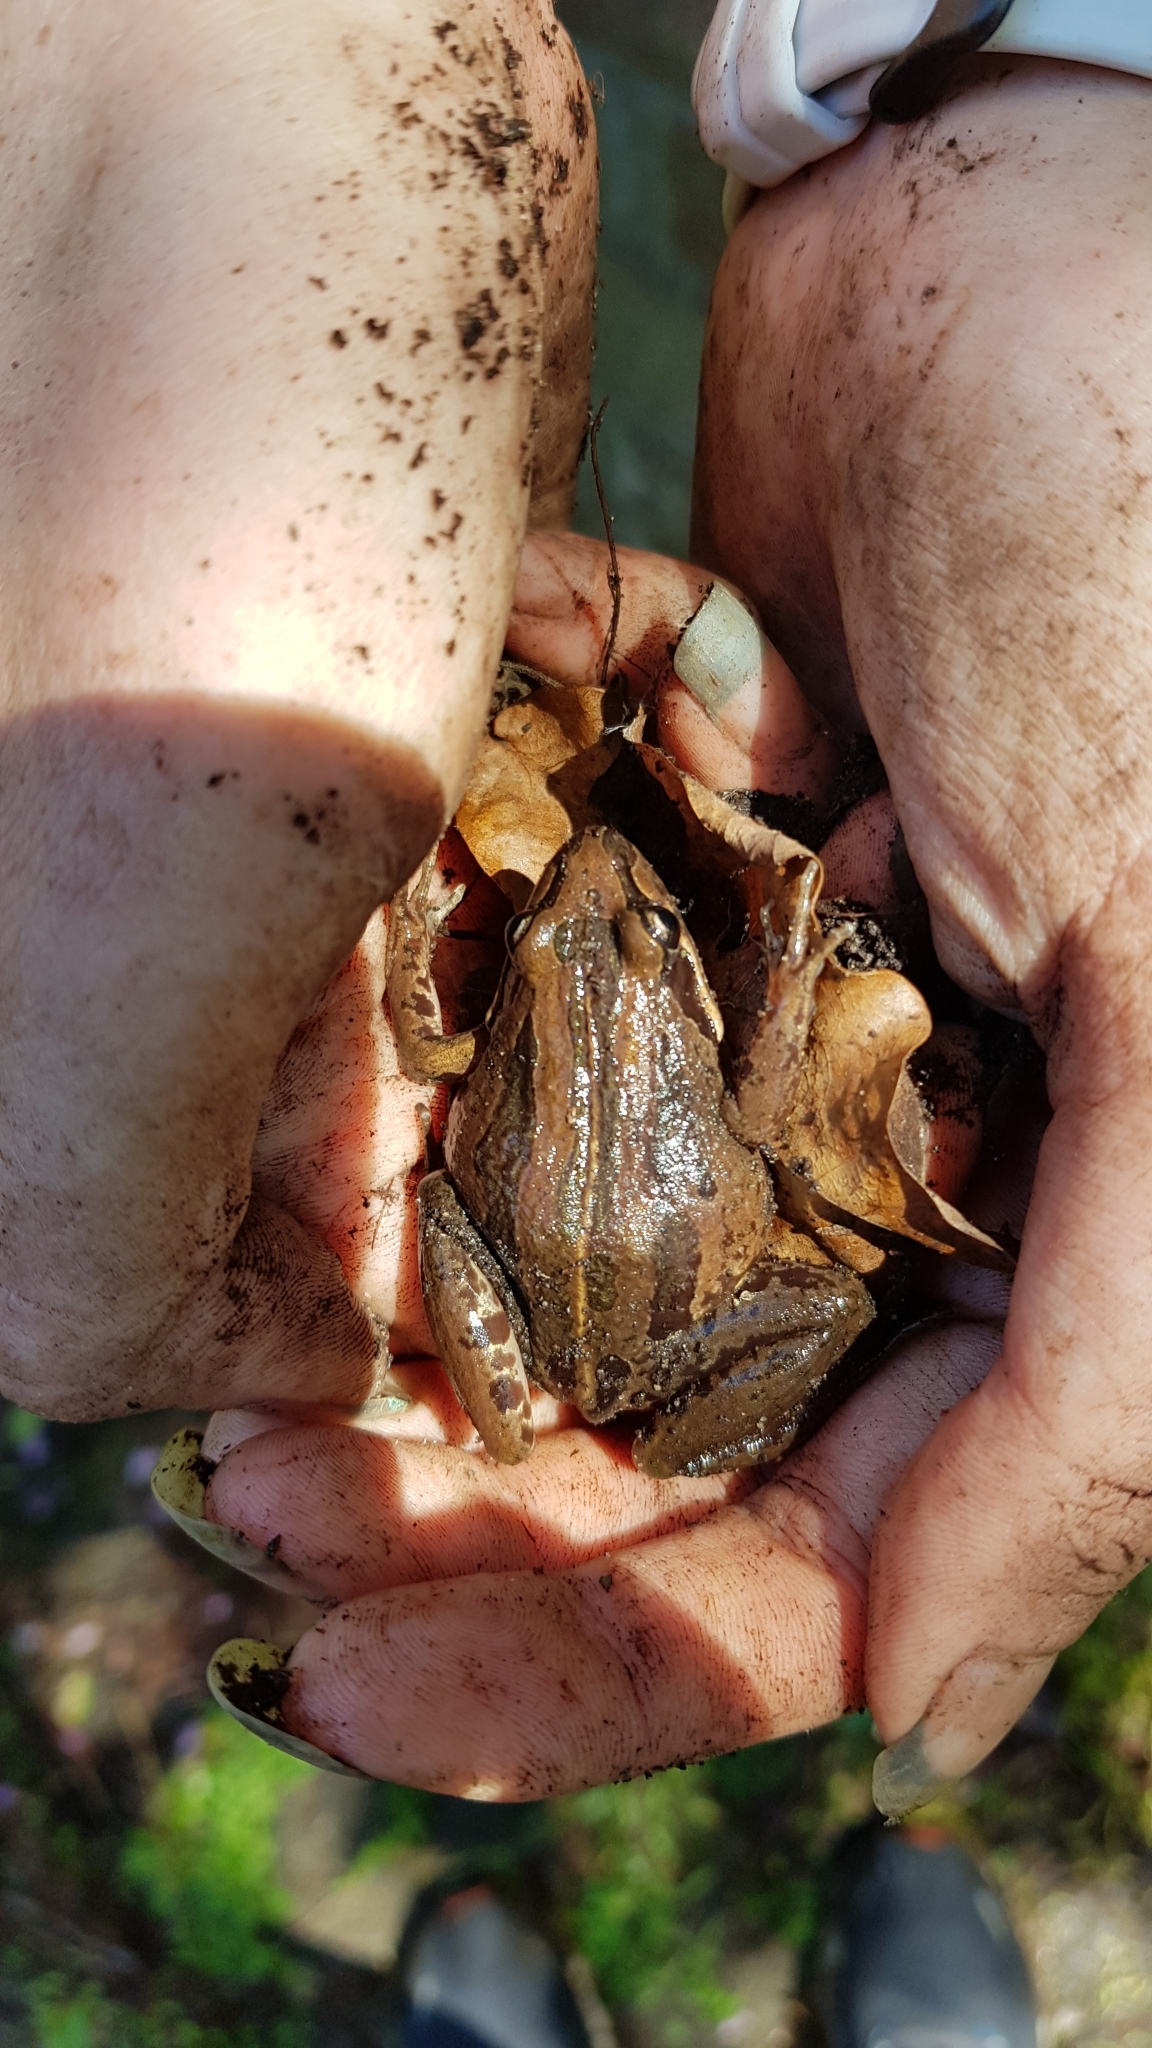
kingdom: Animalia
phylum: Chordata
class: Amphibia
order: Anura
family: Limnodynastidae
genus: Limnodynastes
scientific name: Limnodynastes peronii
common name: Brown frog
